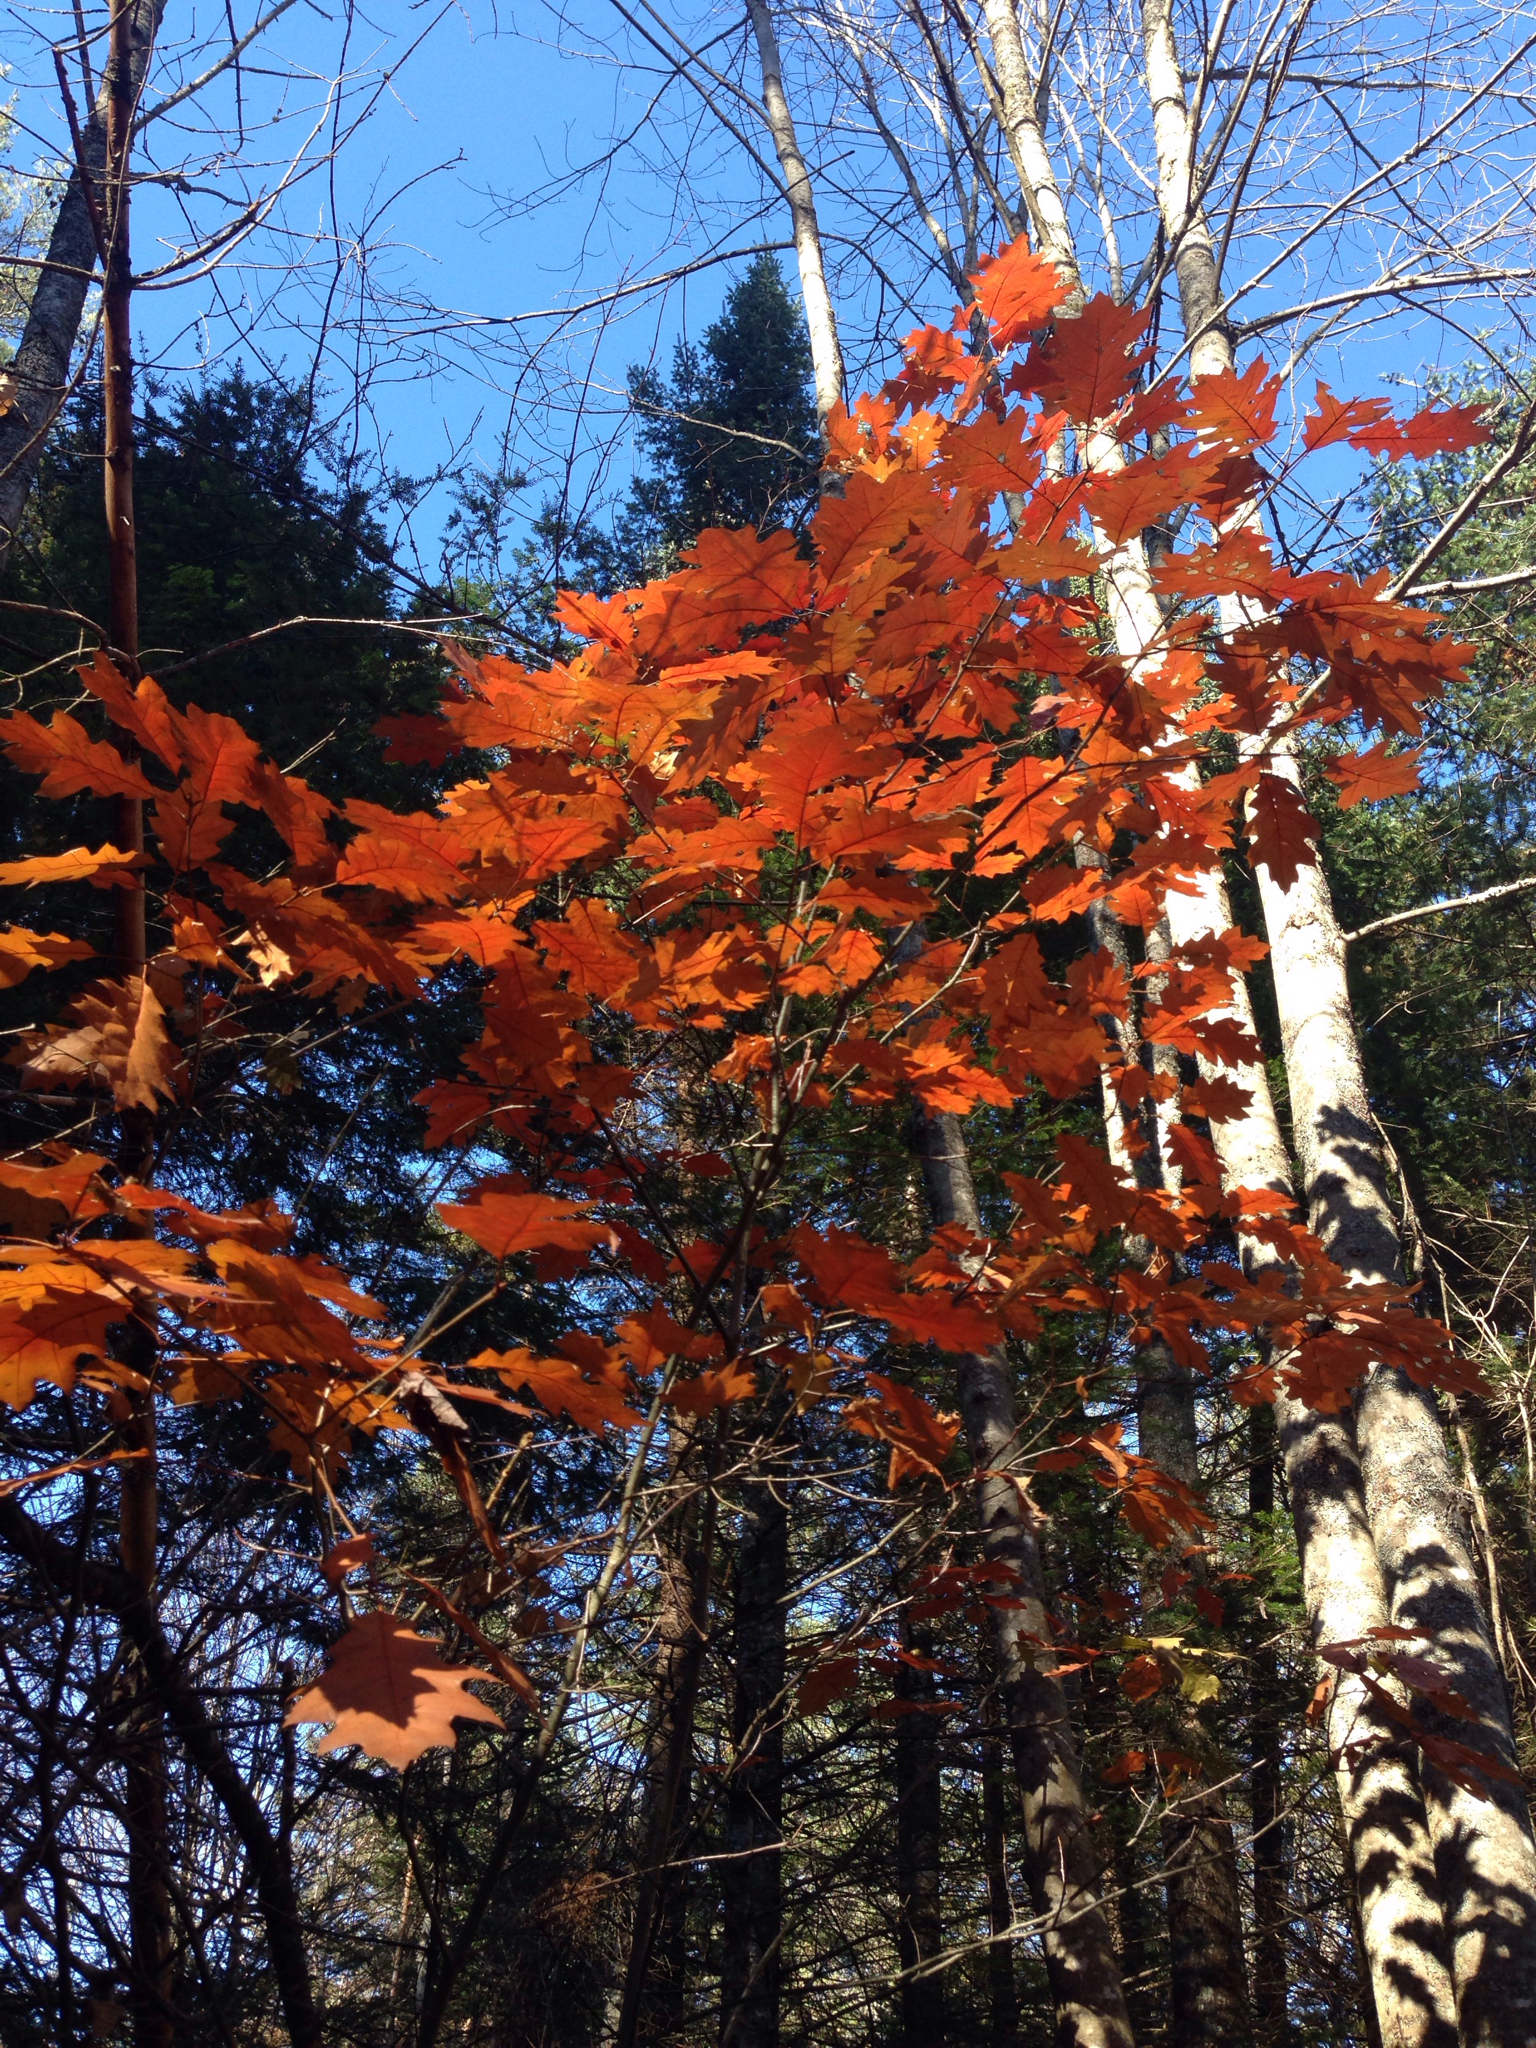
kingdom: Plantae
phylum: Tracheophyta
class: Magnoliopsida
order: Fagales
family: Fagaceae
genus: Quercus
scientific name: Quercus rubra
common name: Red oak
